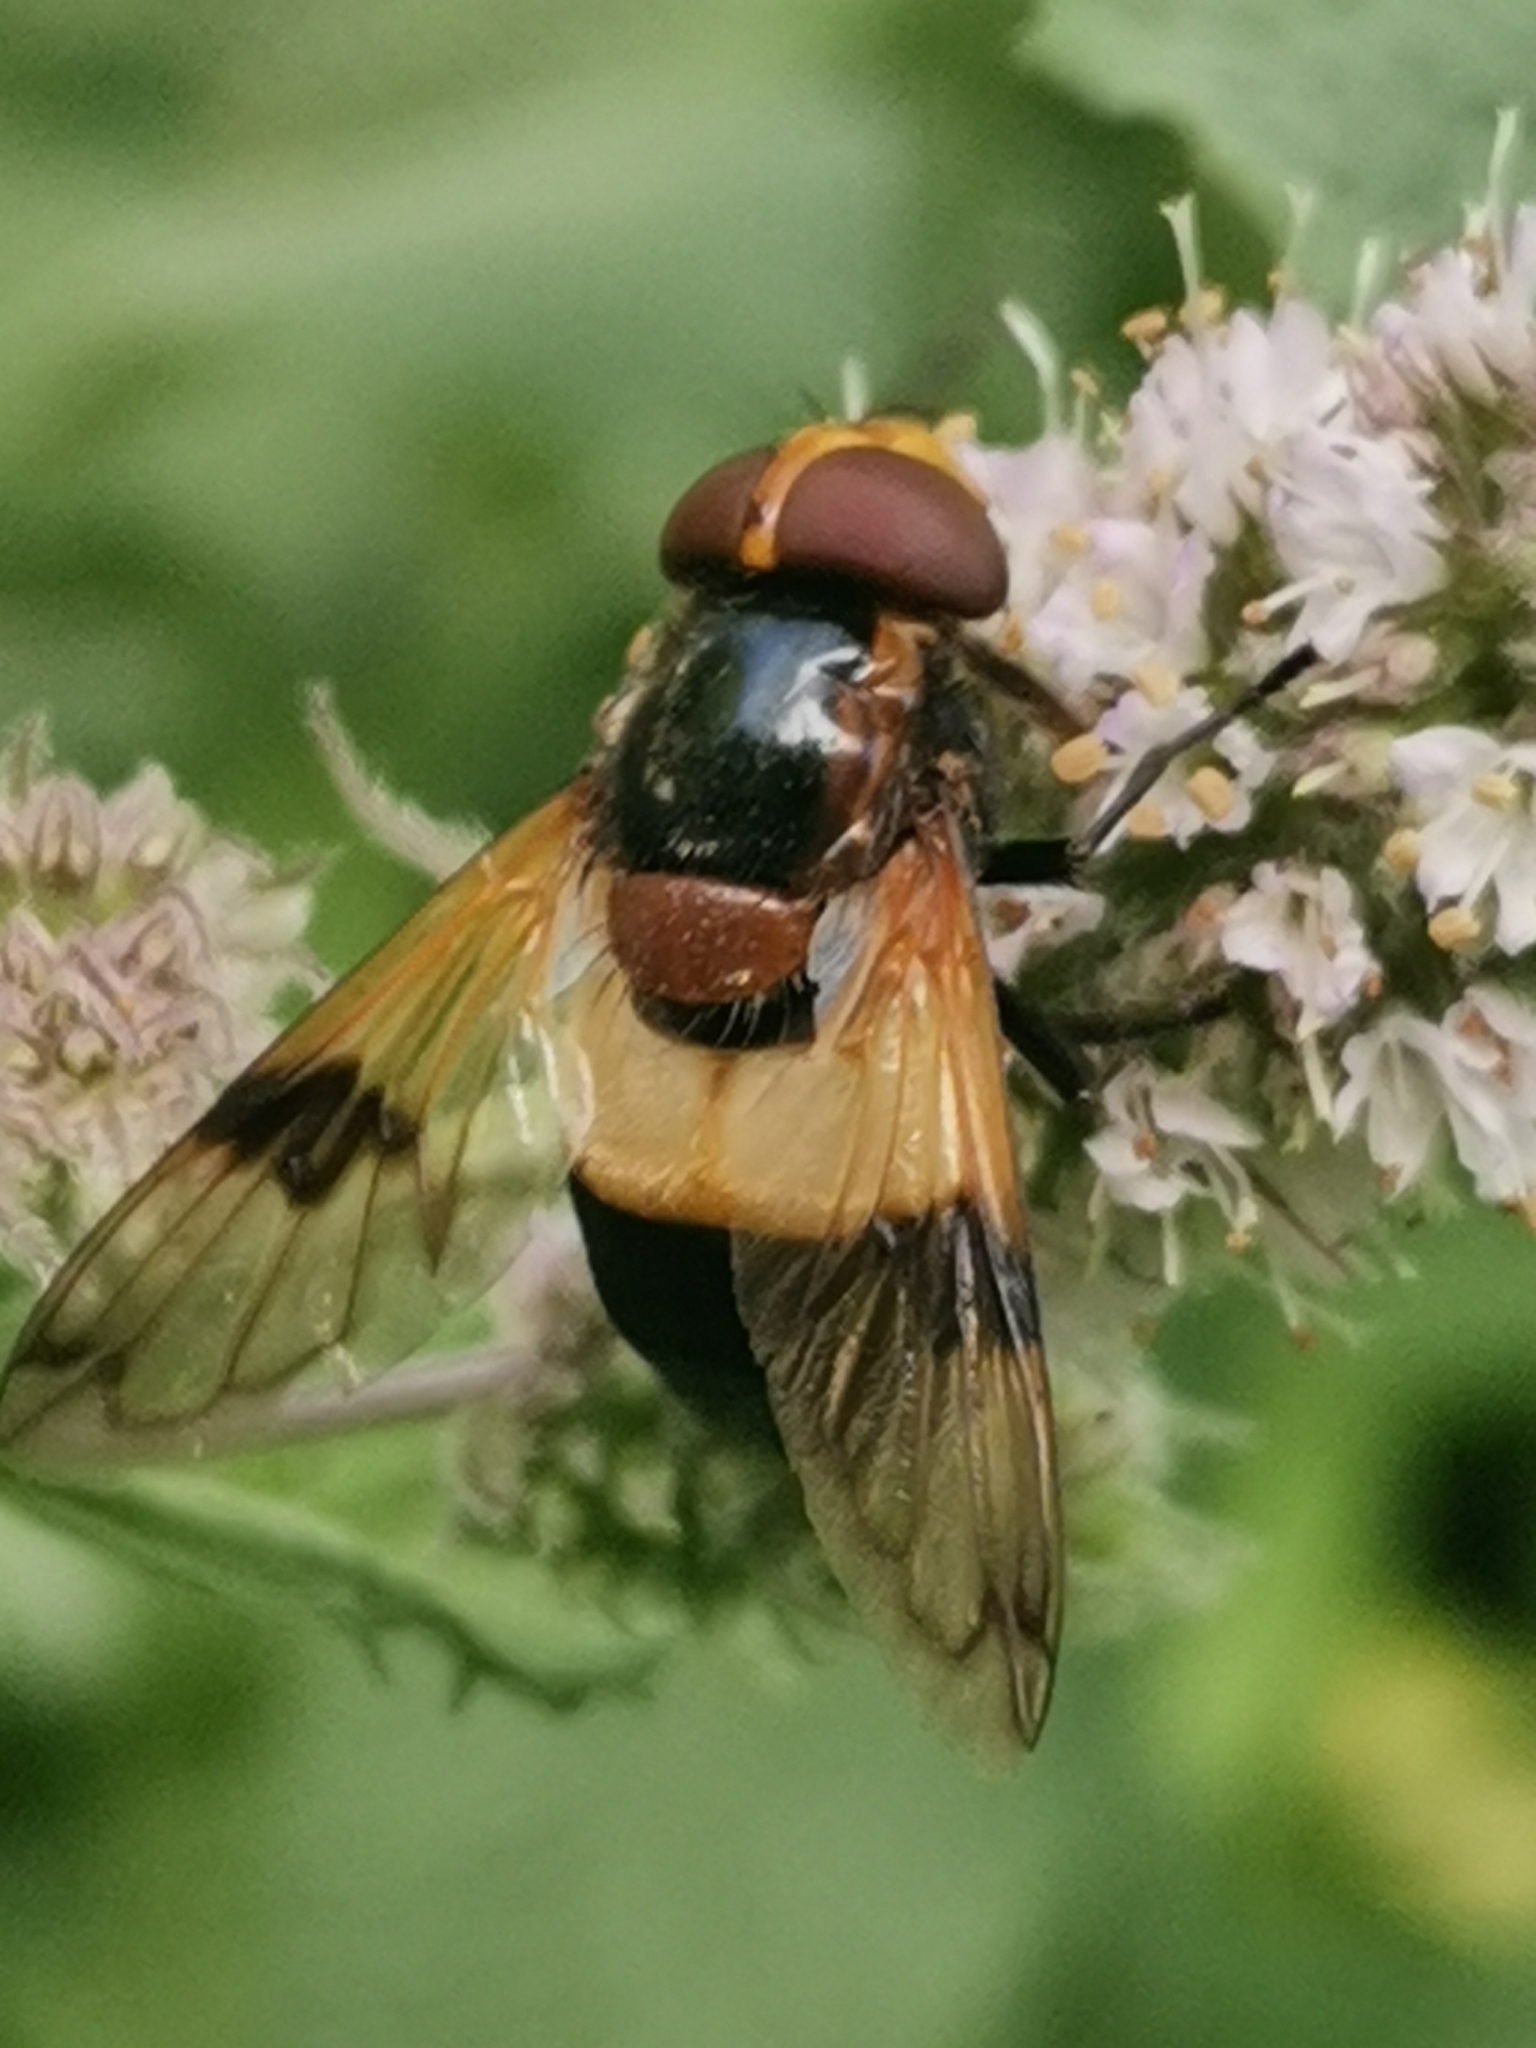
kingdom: Animalia
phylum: Arthropoda
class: Insecta
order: Diptera
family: Syrphidae
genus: Volucella
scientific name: Volucella pellucens
